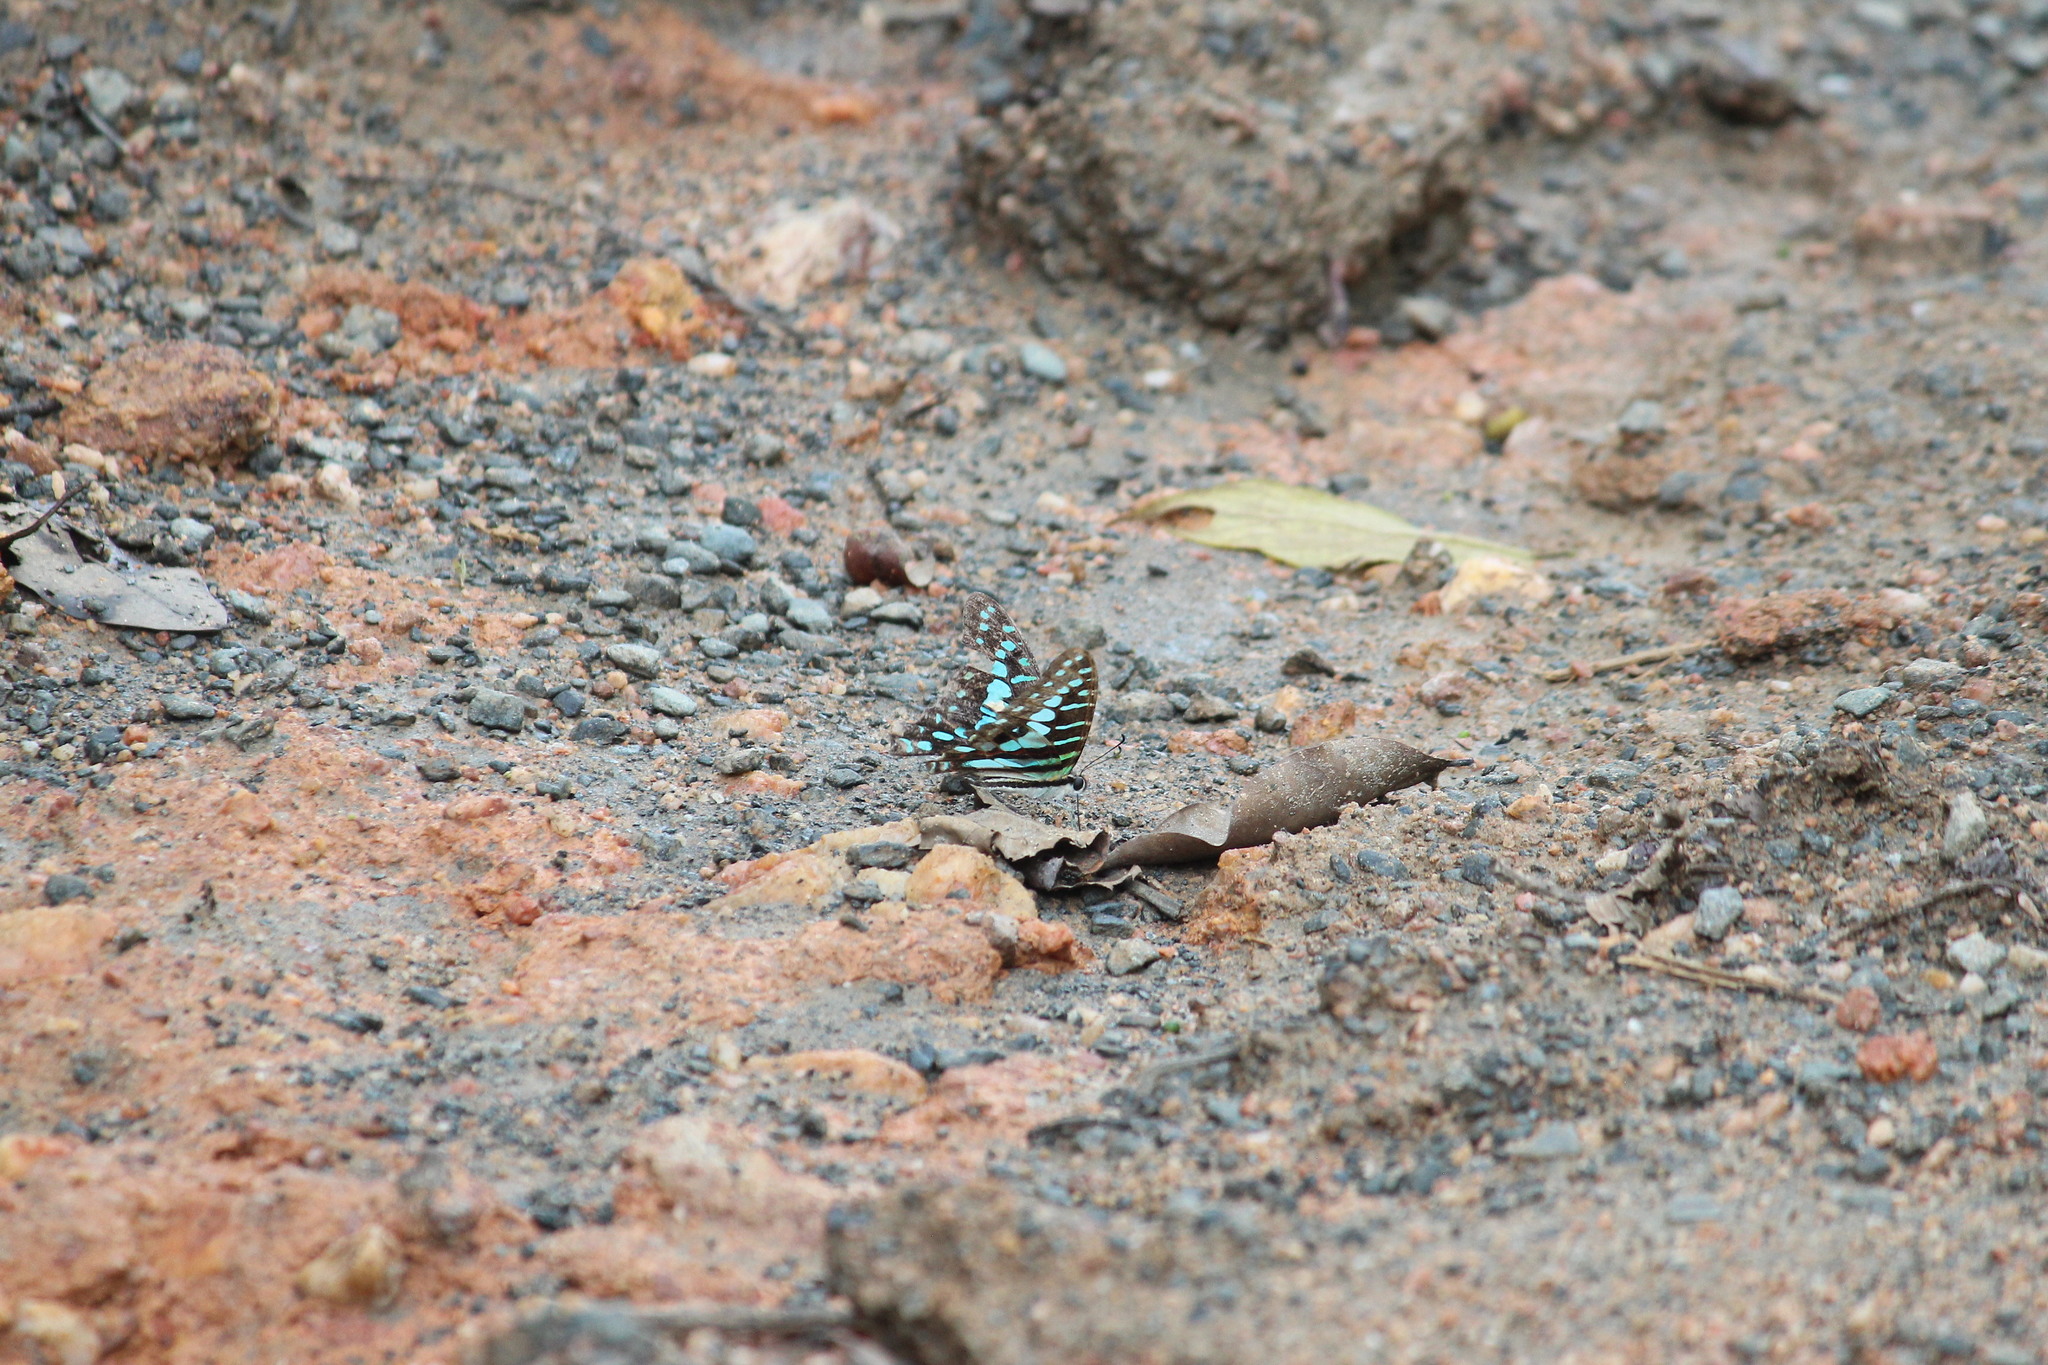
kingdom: Animalia
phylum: Arthropoda
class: Insecta
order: Lepidoptera
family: Papilionidae
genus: Graphium
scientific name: Graphium policenes
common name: Common swordtail
